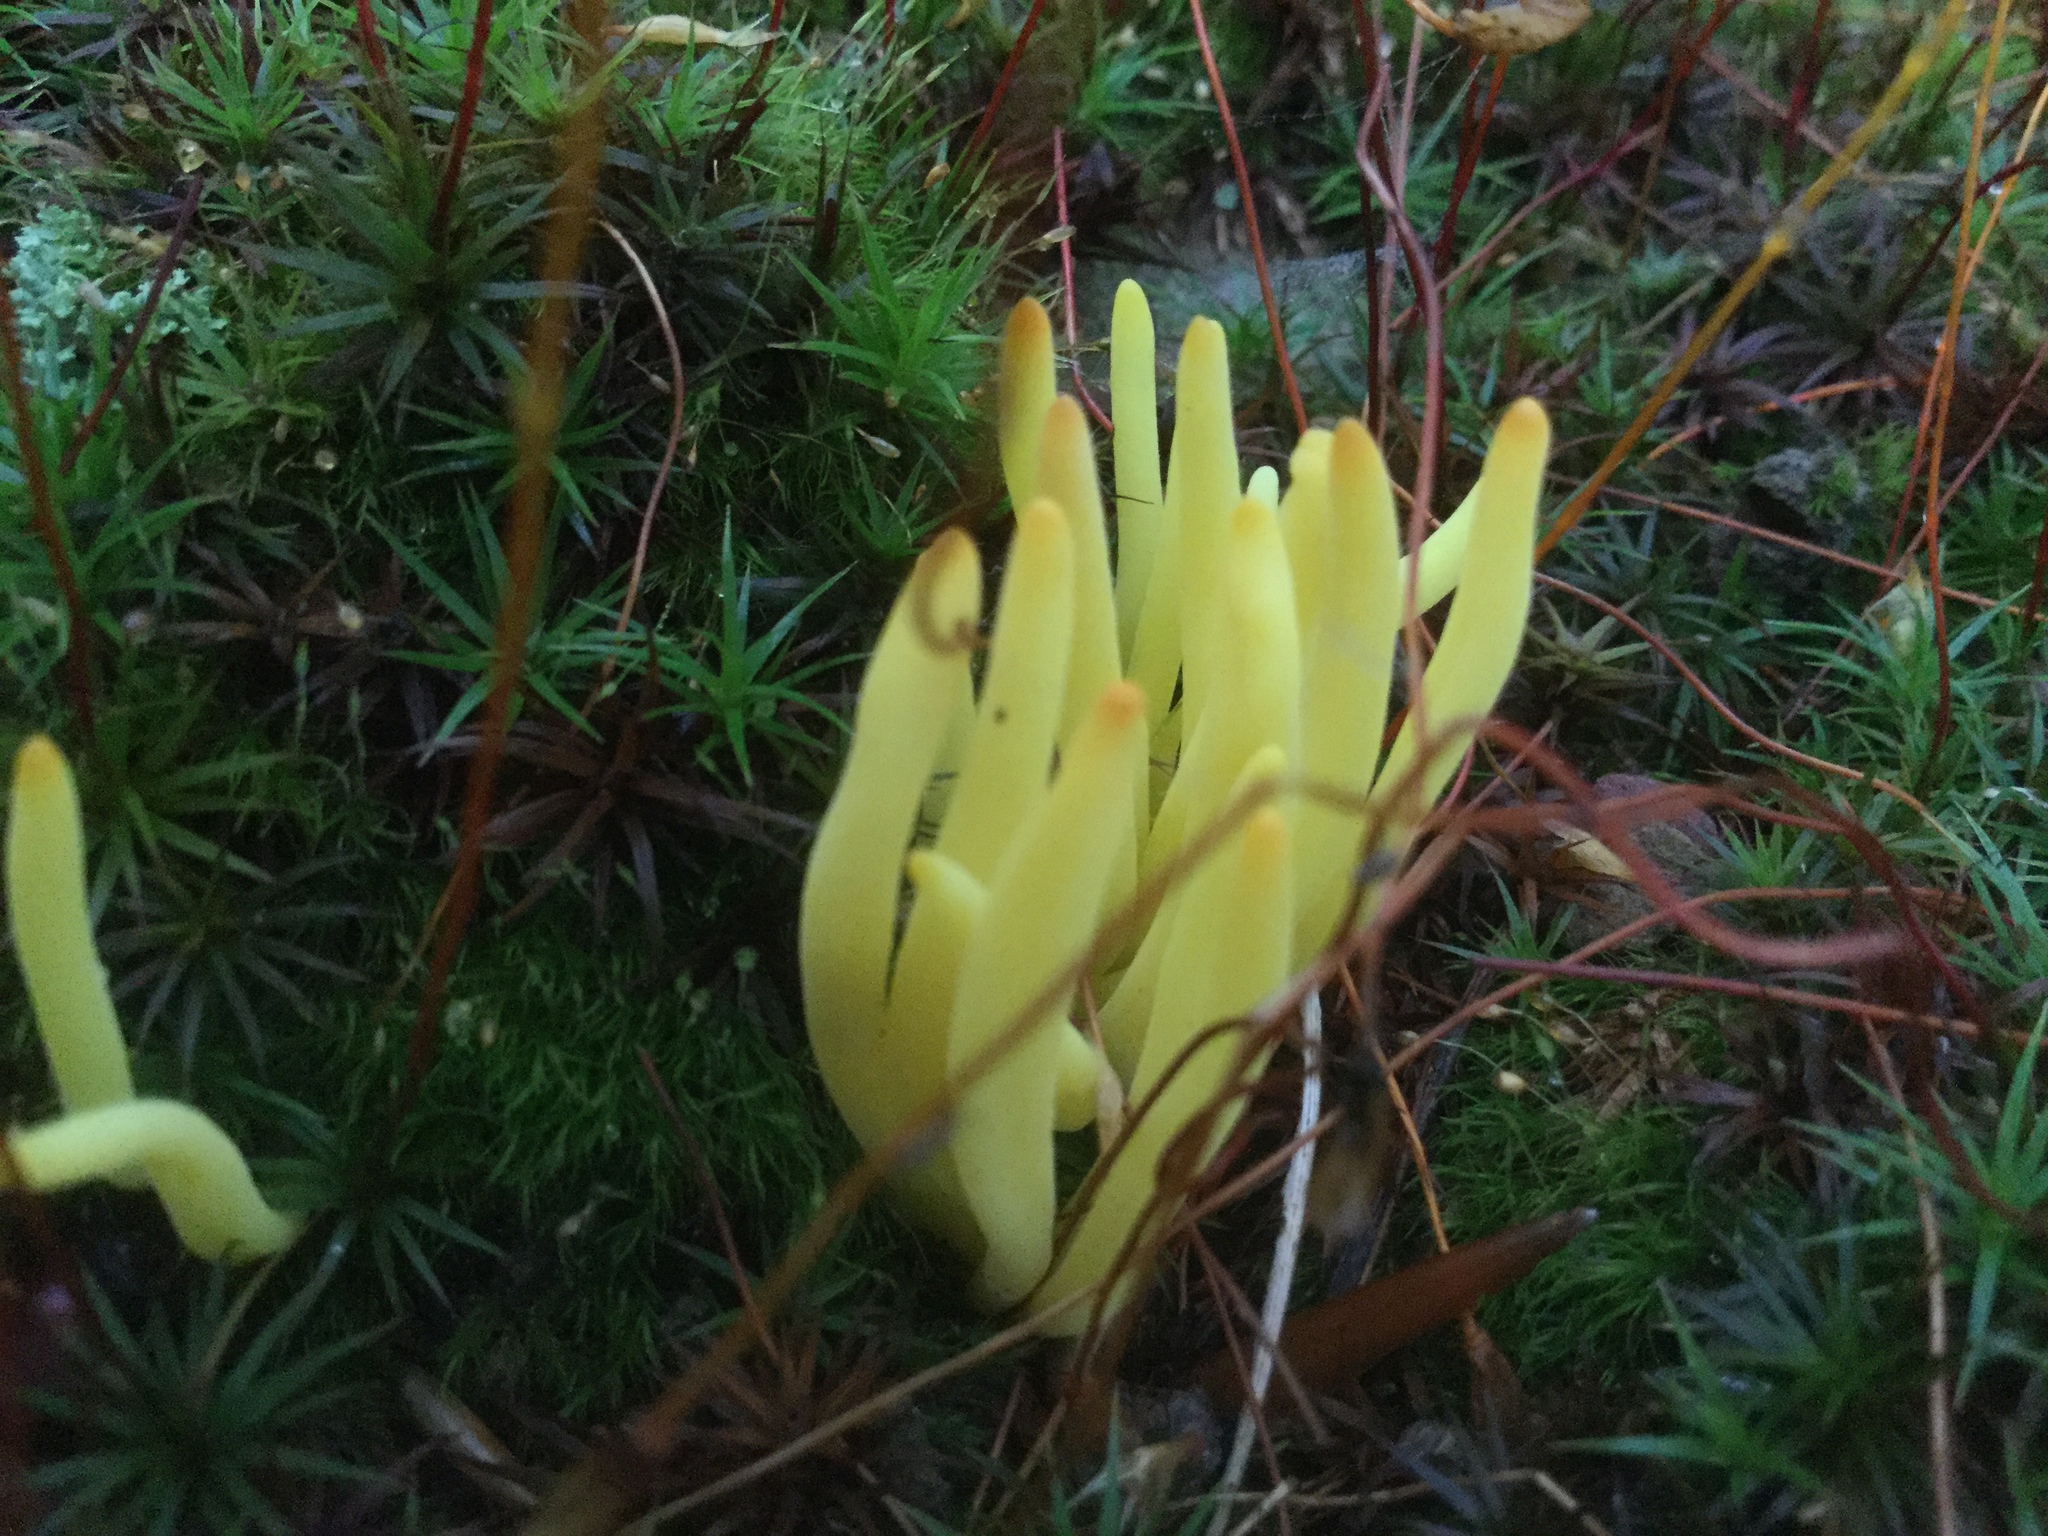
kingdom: Fungi
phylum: Basidiomycota
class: Agaricomycetes
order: Agaricales
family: Clavariaceae
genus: Clavulinopsis
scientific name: Clavulinopsis fusiformis
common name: Golden spindles
